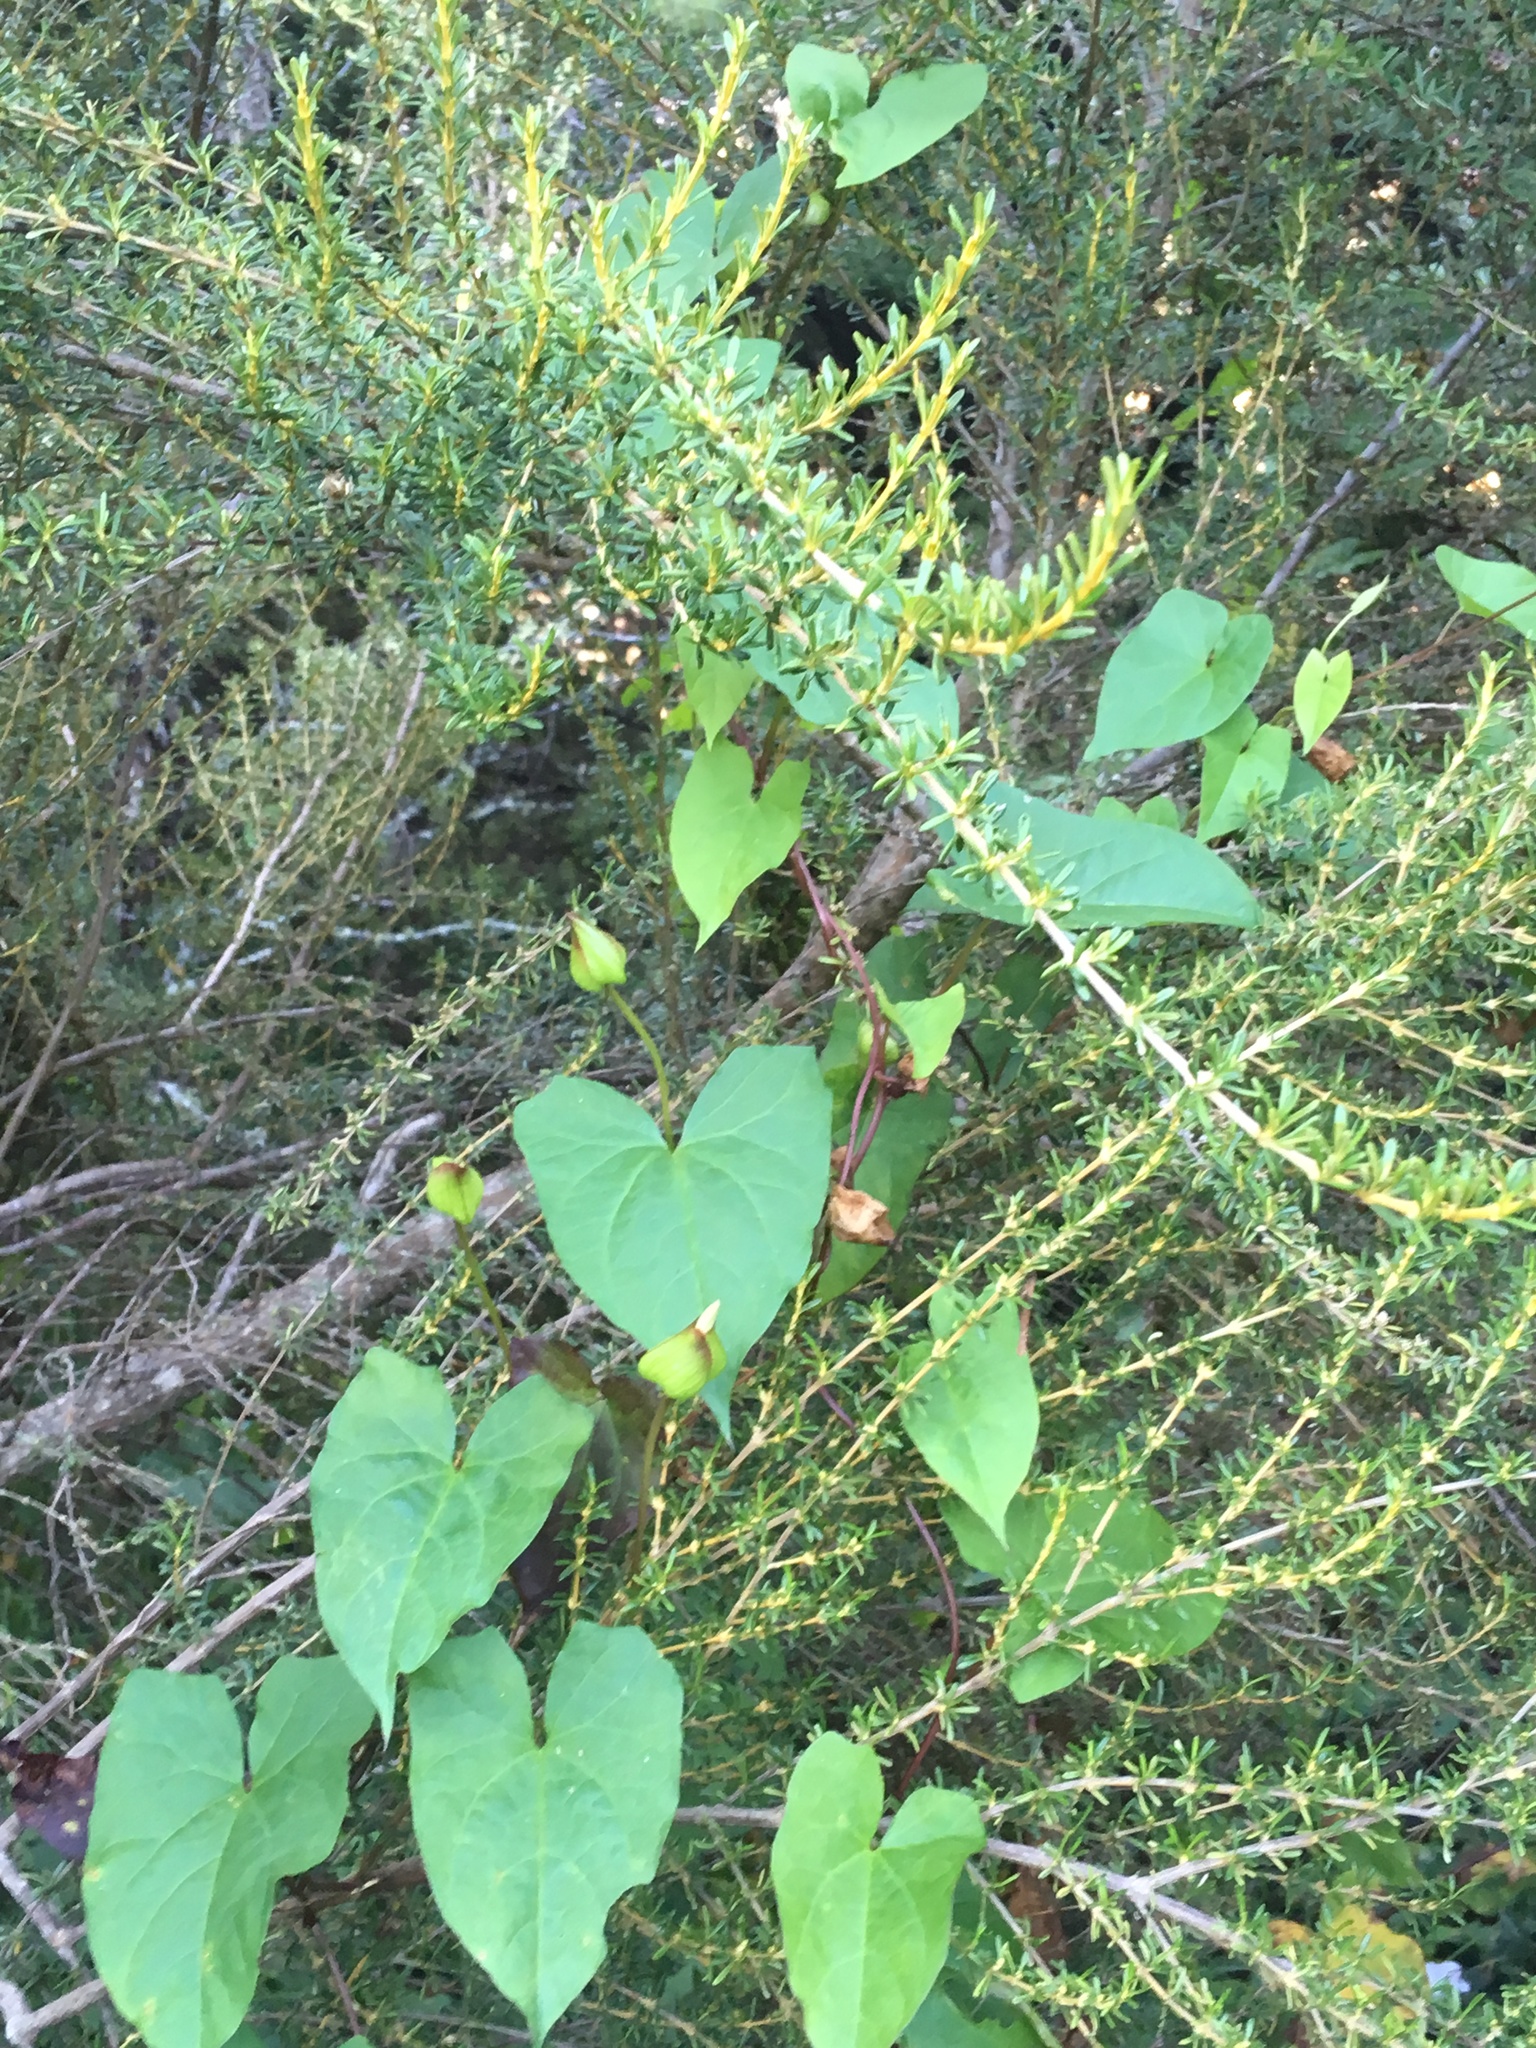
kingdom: Plantae
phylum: Tracheophyta
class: Magnoliopsida
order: Asterales
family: Asteraceae
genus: Olearia
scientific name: Olearia solandri
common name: Coastal daisybush
